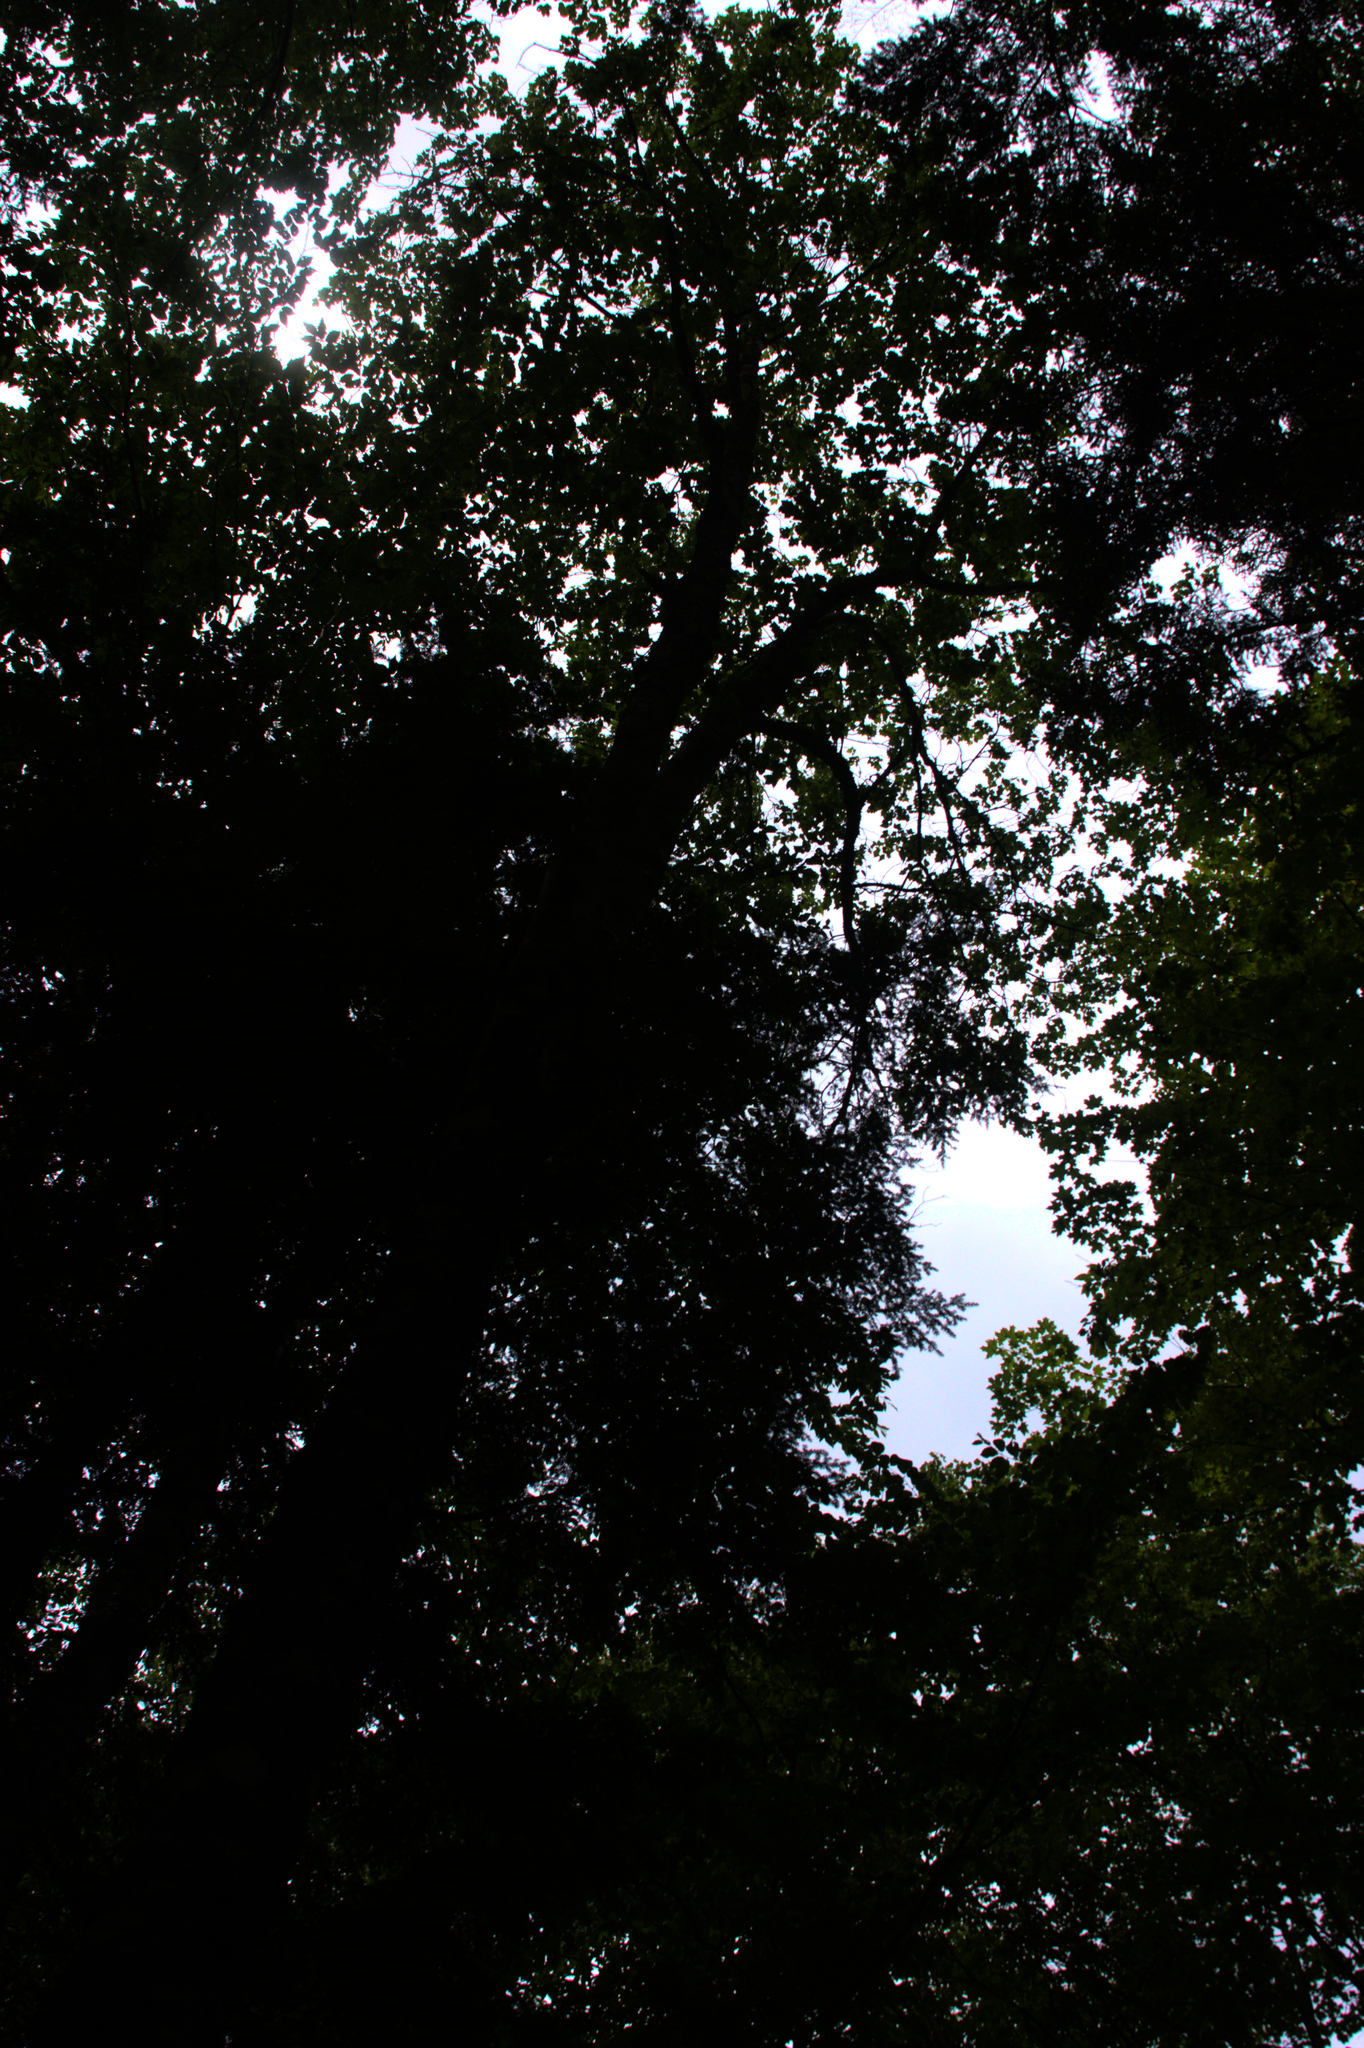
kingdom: Plantae
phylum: Tracheophyta
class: Magnoliopsida
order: Sapindales
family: Sapindaceae
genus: Acer
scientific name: Acer rubrum
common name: Red maple
